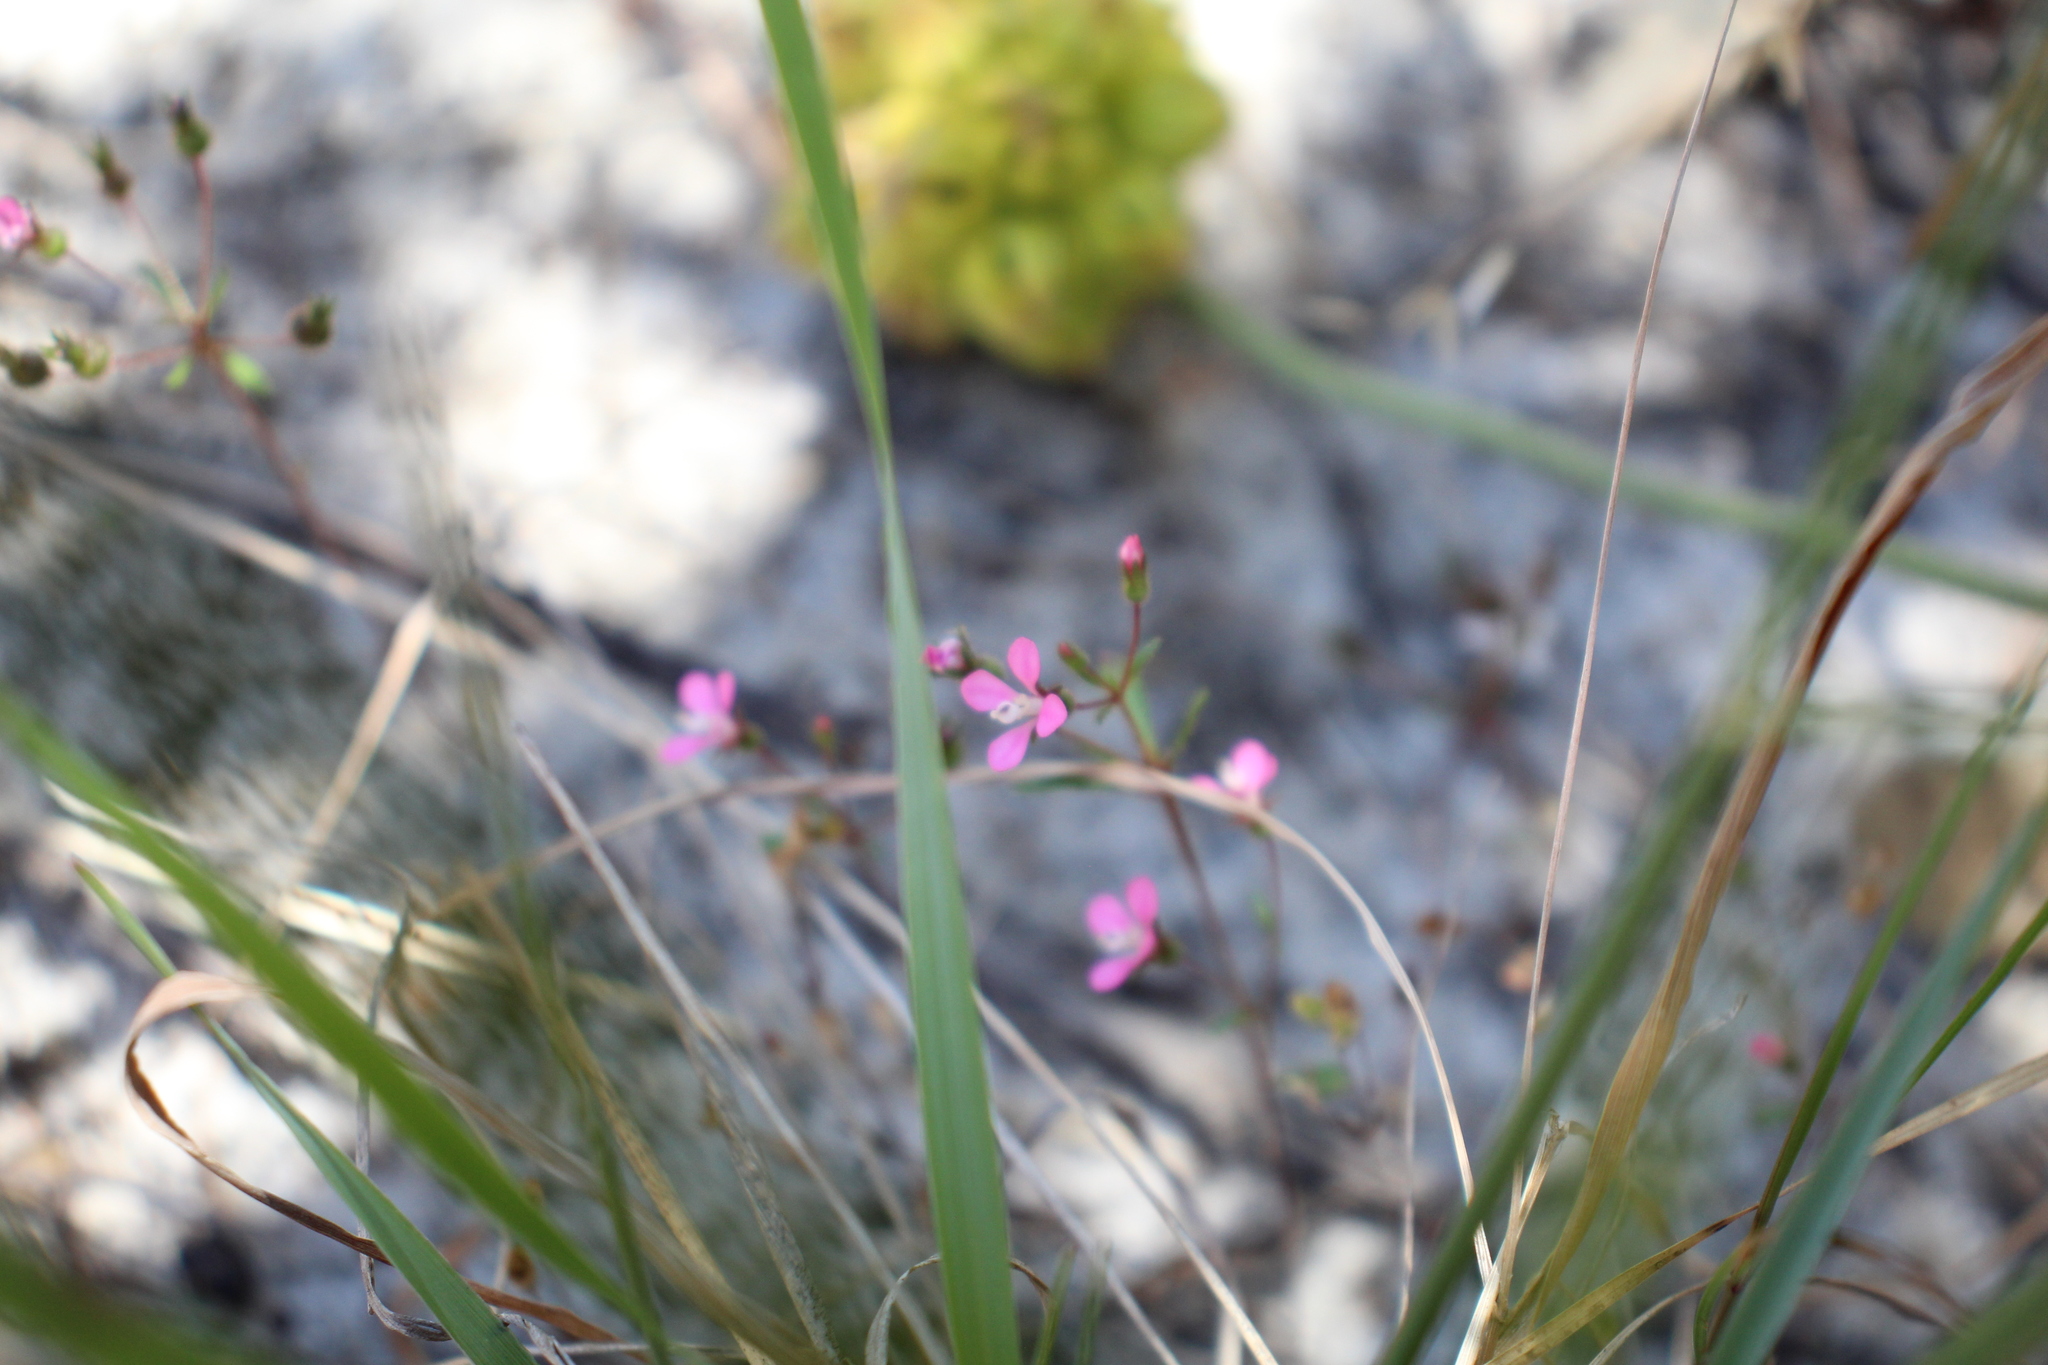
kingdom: Plantae
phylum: Tracheophyta
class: Magnoliopsida
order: Asterales
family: Stylidiaceae
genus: Levenhookia
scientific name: Levenhookia stipitata
